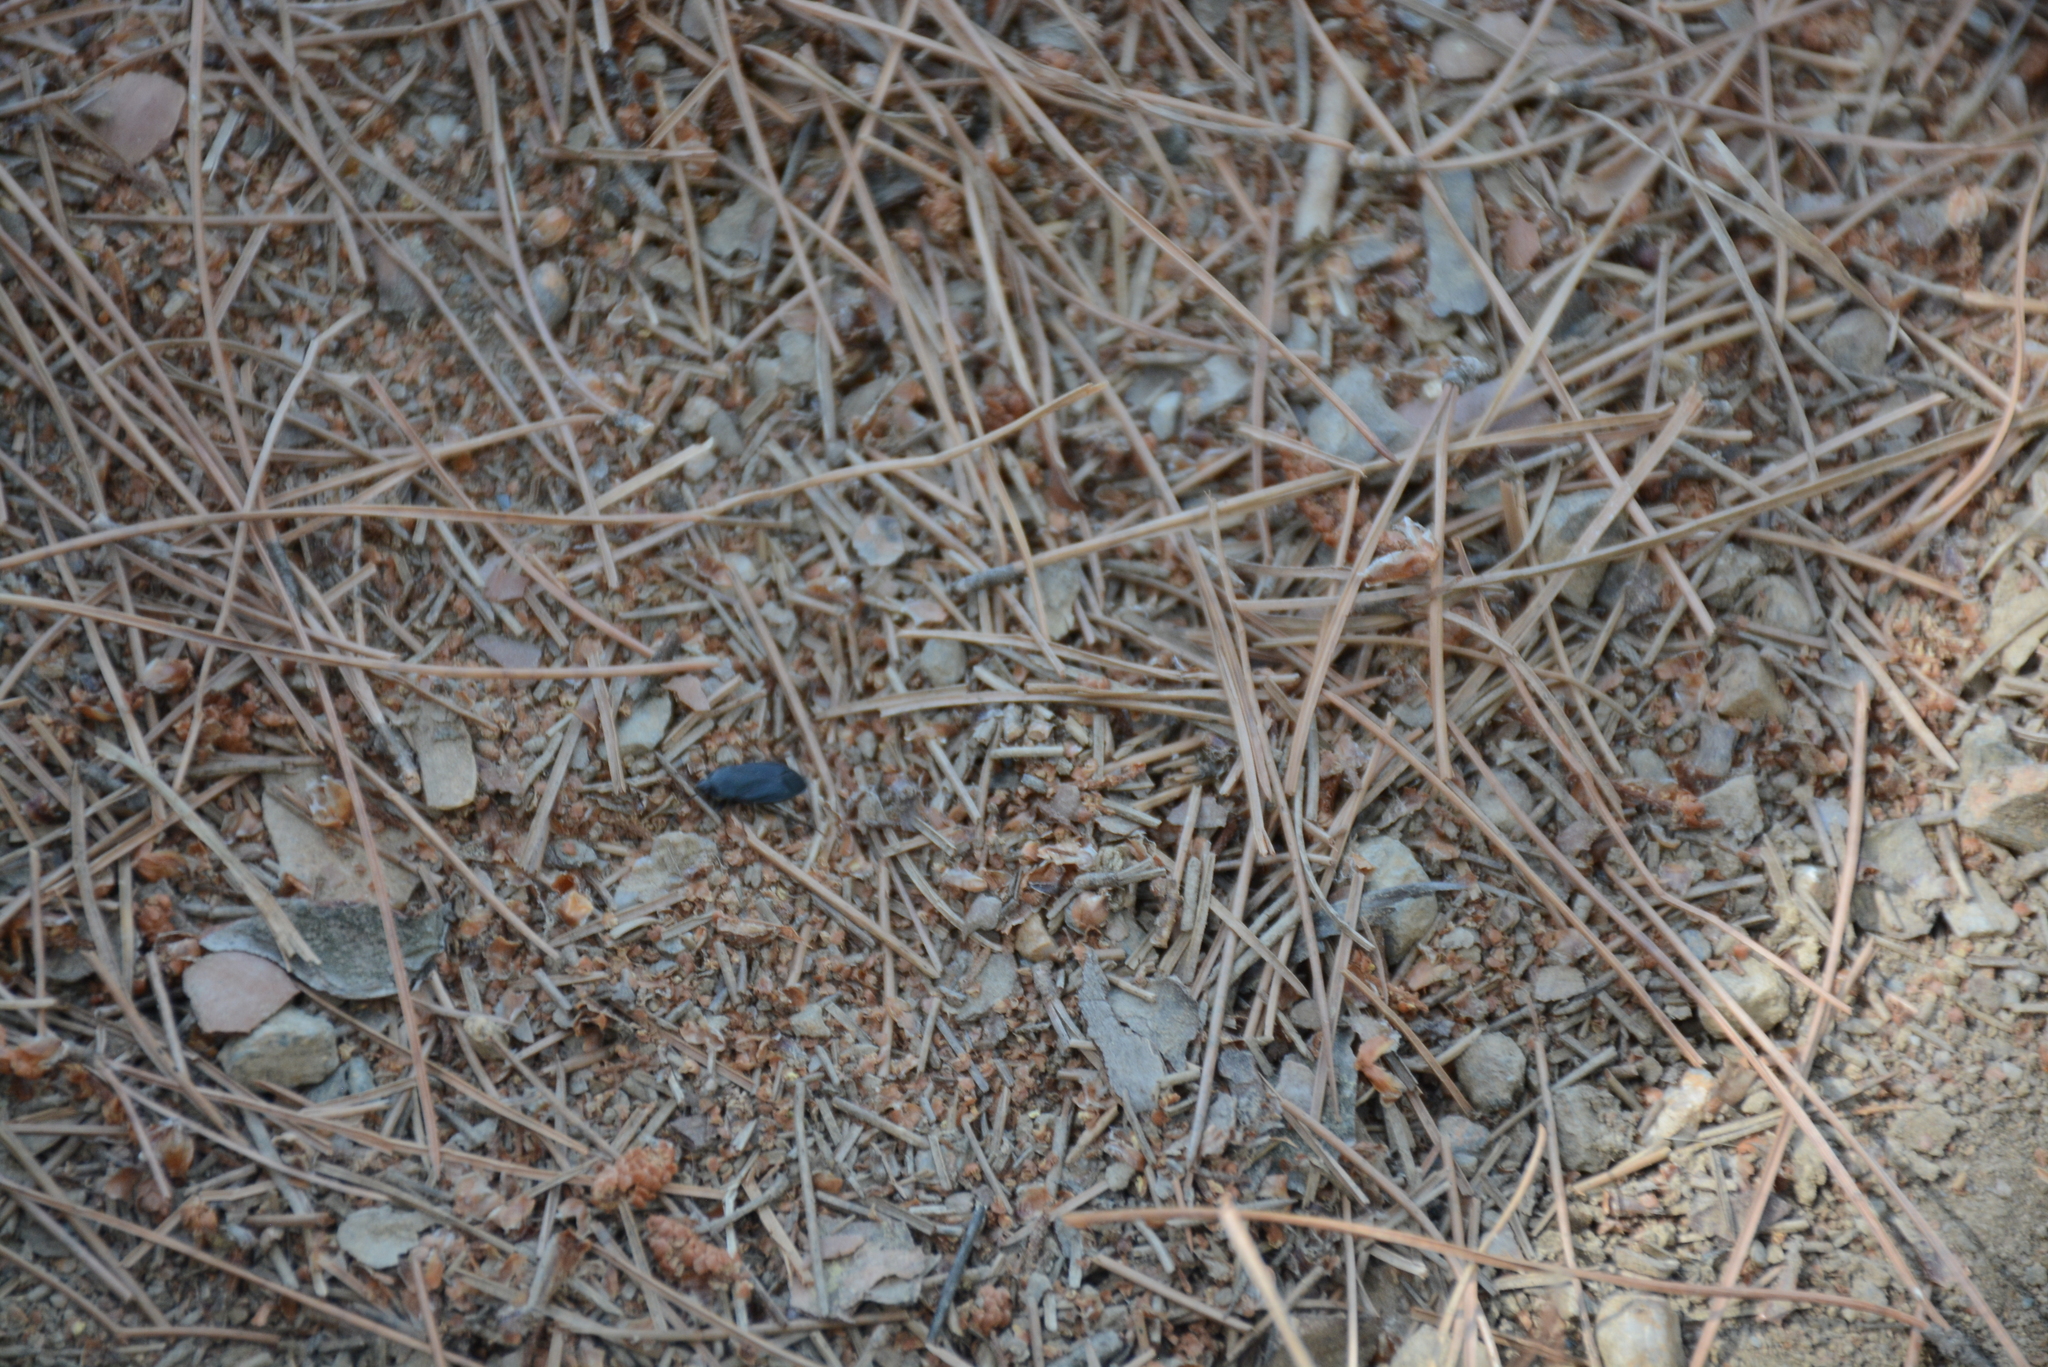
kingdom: Animalia
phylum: Arthropoda
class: Insecta
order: Hemiptera
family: Rhyparochromidae
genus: Lethaeus
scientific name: Lethaeus cribratissimus
